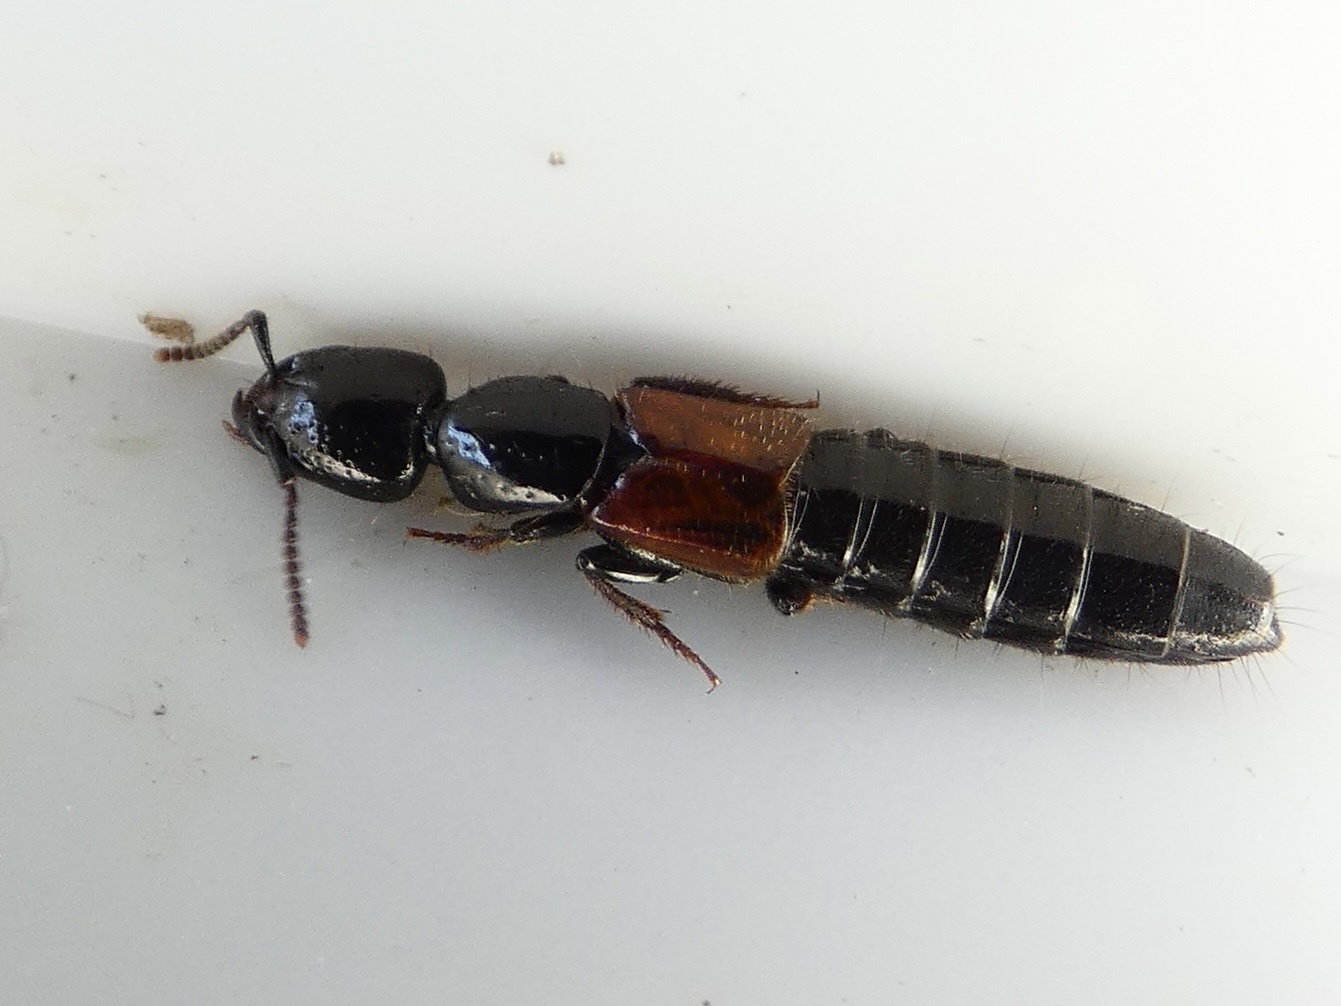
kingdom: Animalia
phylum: Arthropoda
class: Insecta
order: Coleoptera
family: Staphylinidae
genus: Megalinus
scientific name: Megalinus glabratus
